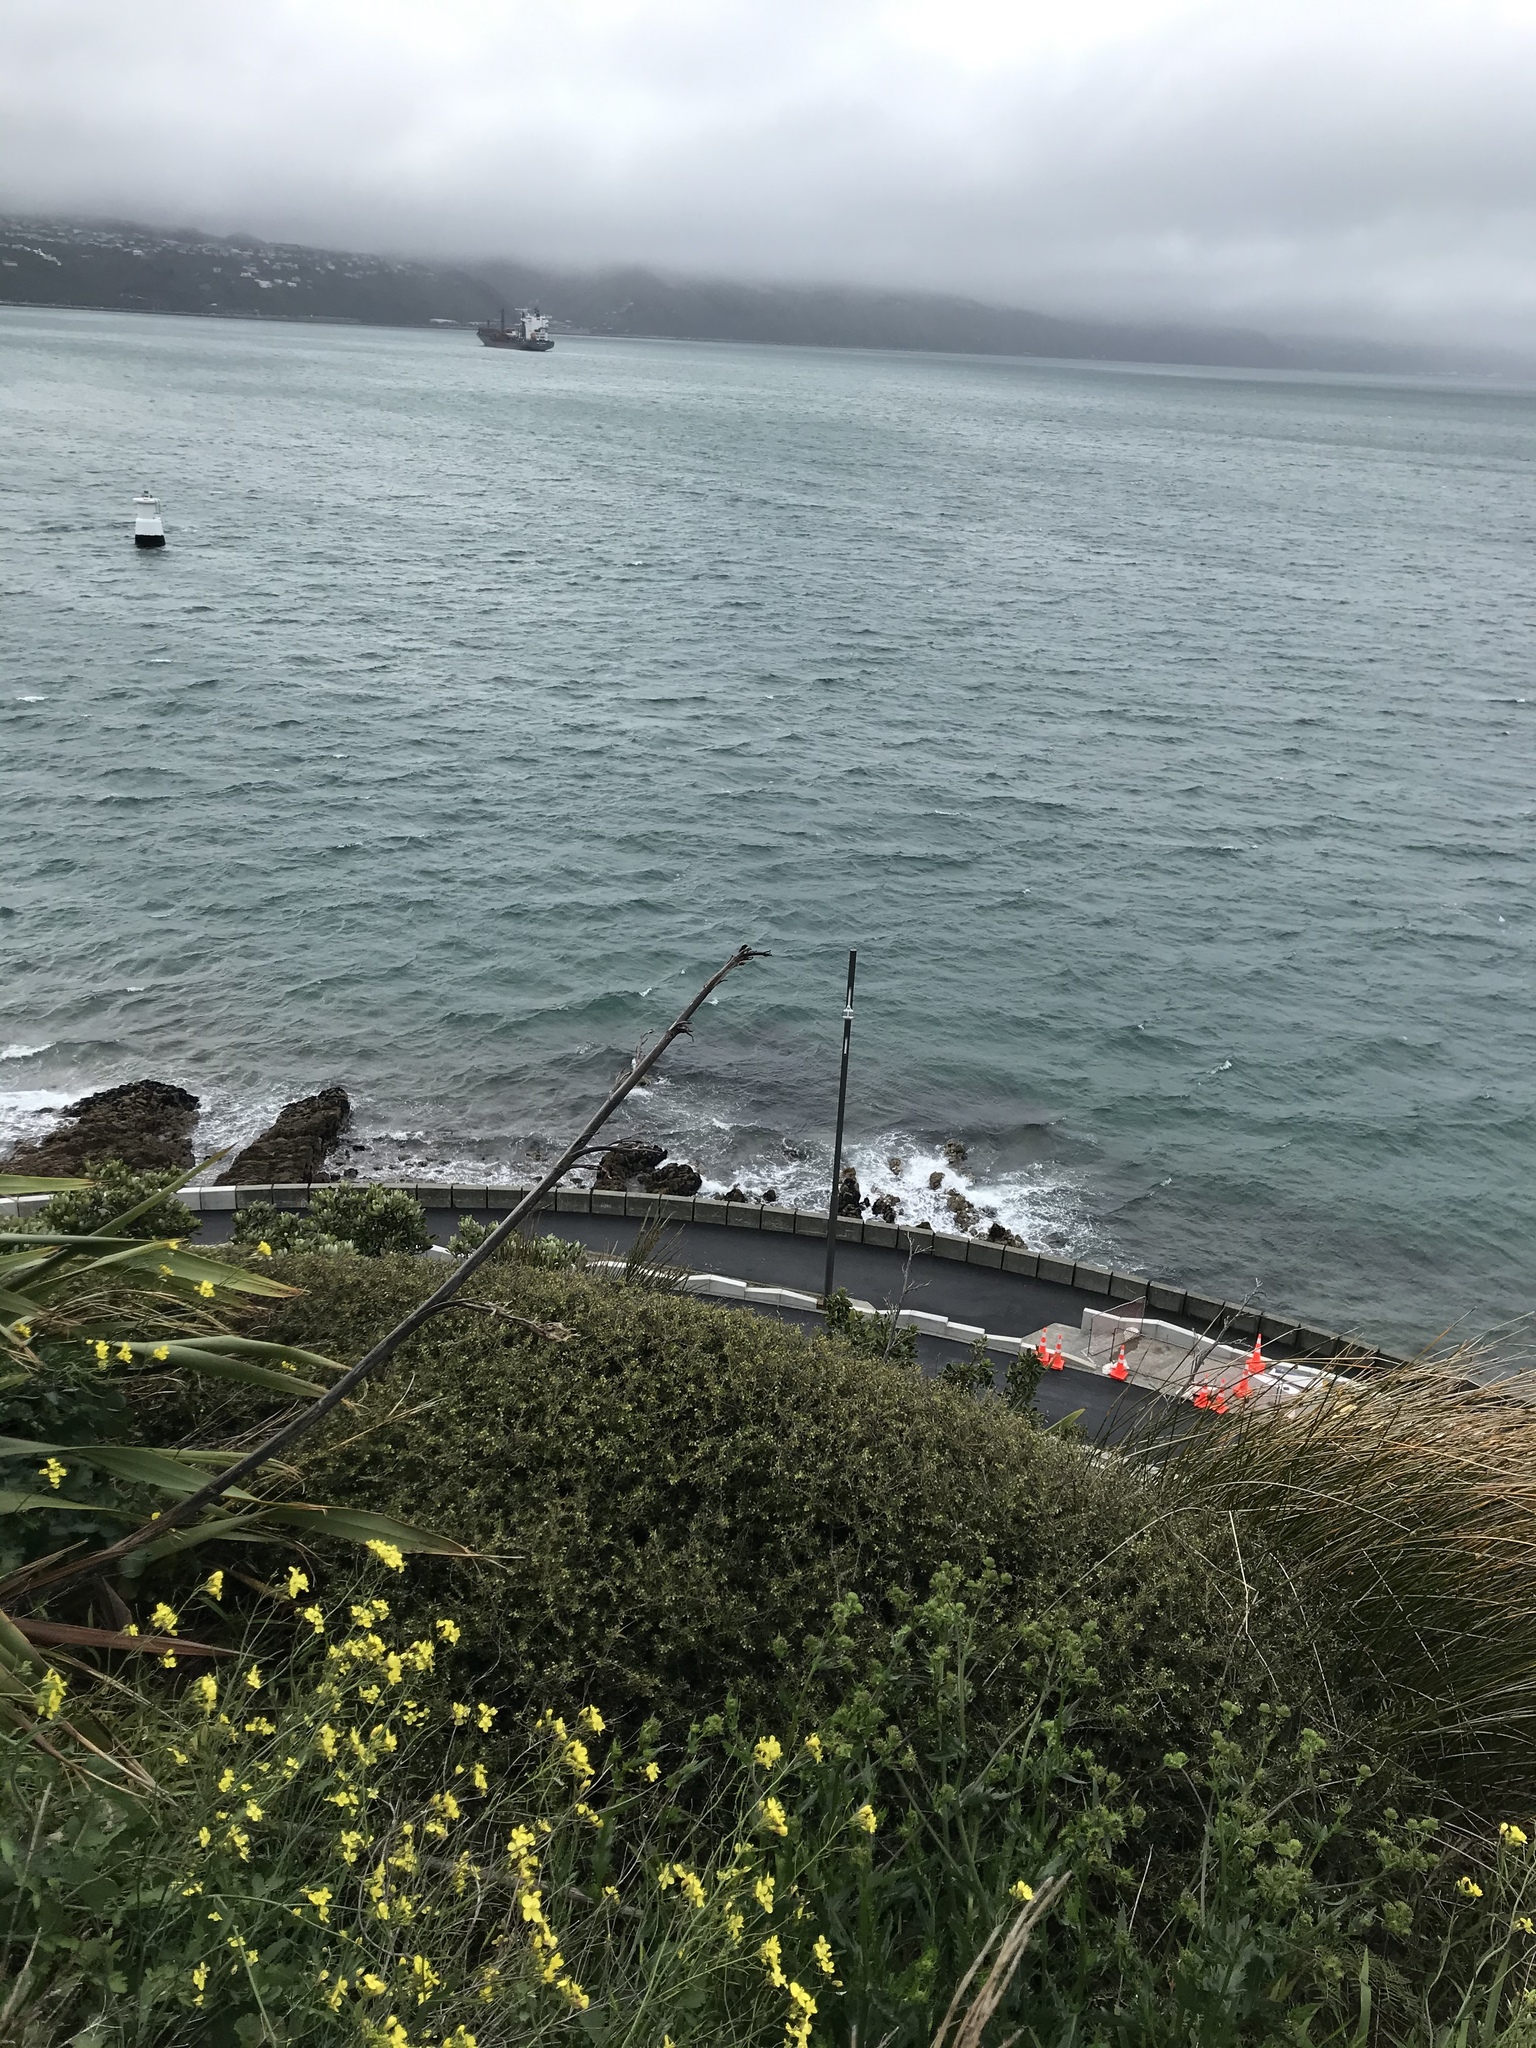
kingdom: Plantae
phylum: Tracheophyta
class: Magnoliopsida
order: Ericales
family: Ericaceae
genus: Leptecophylla
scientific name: Leptecophylla juniperina
